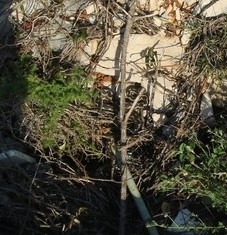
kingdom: Animalia
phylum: Chordata
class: Squamata
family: Viperidae
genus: Vipera
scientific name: Vipera ammodytes
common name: Sand viper
